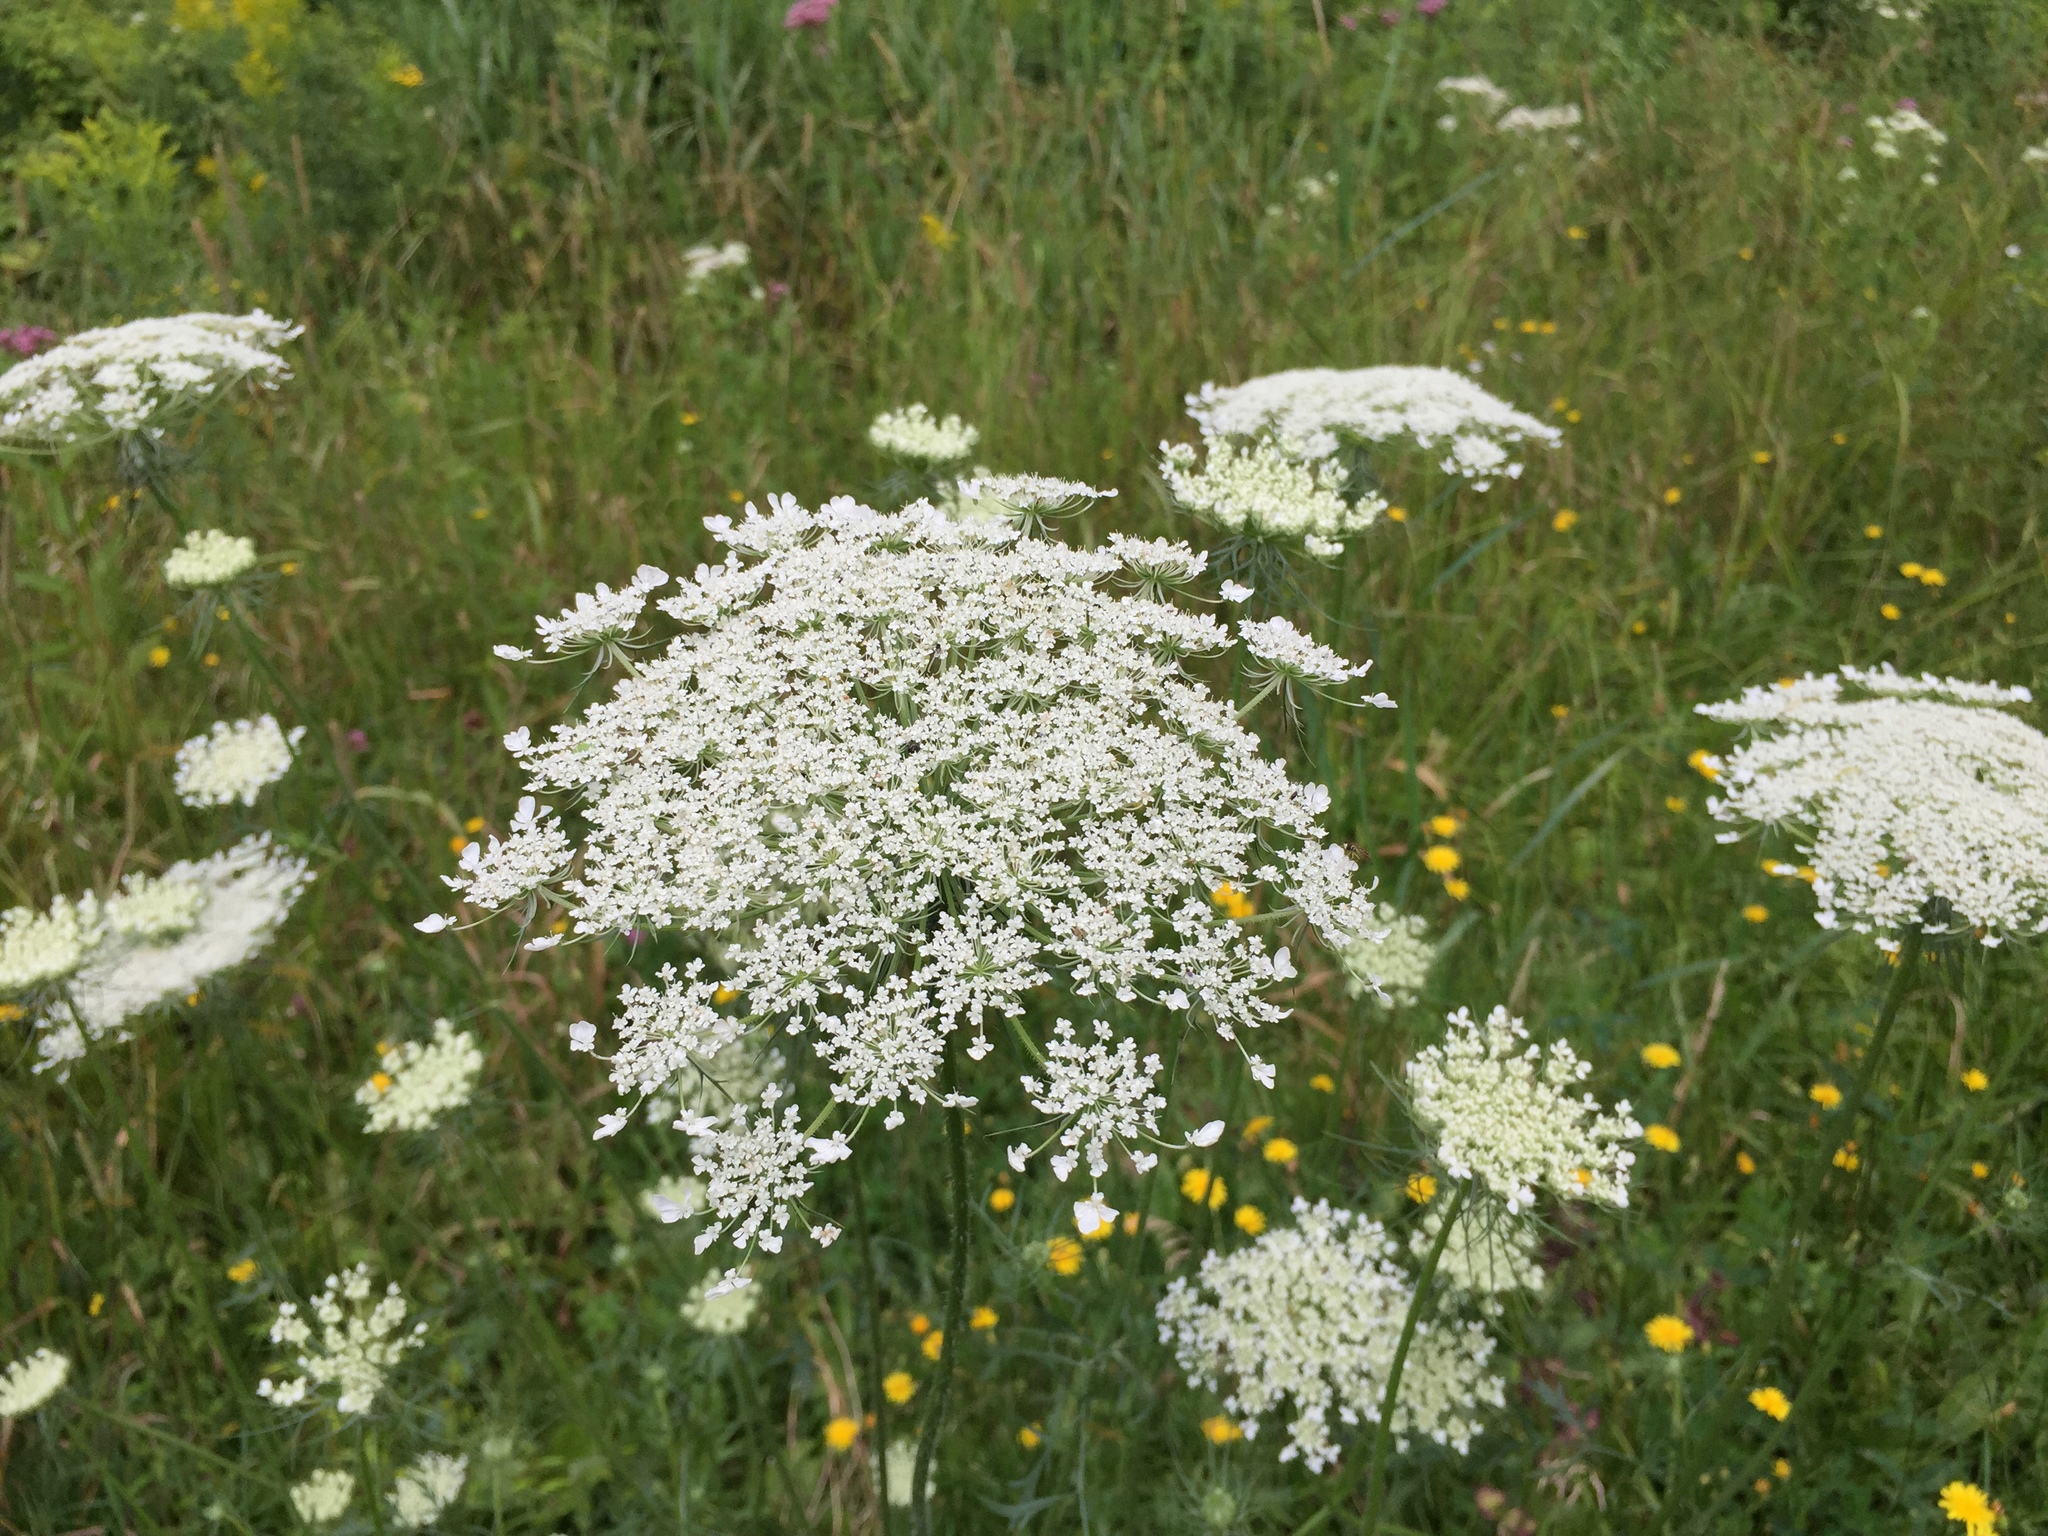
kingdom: Plantae
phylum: Tracheophyta
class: Magnoliopsida
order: Apiales
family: Apiaceae
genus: Daucus
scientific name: Daucus carota
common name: Wild carrot
